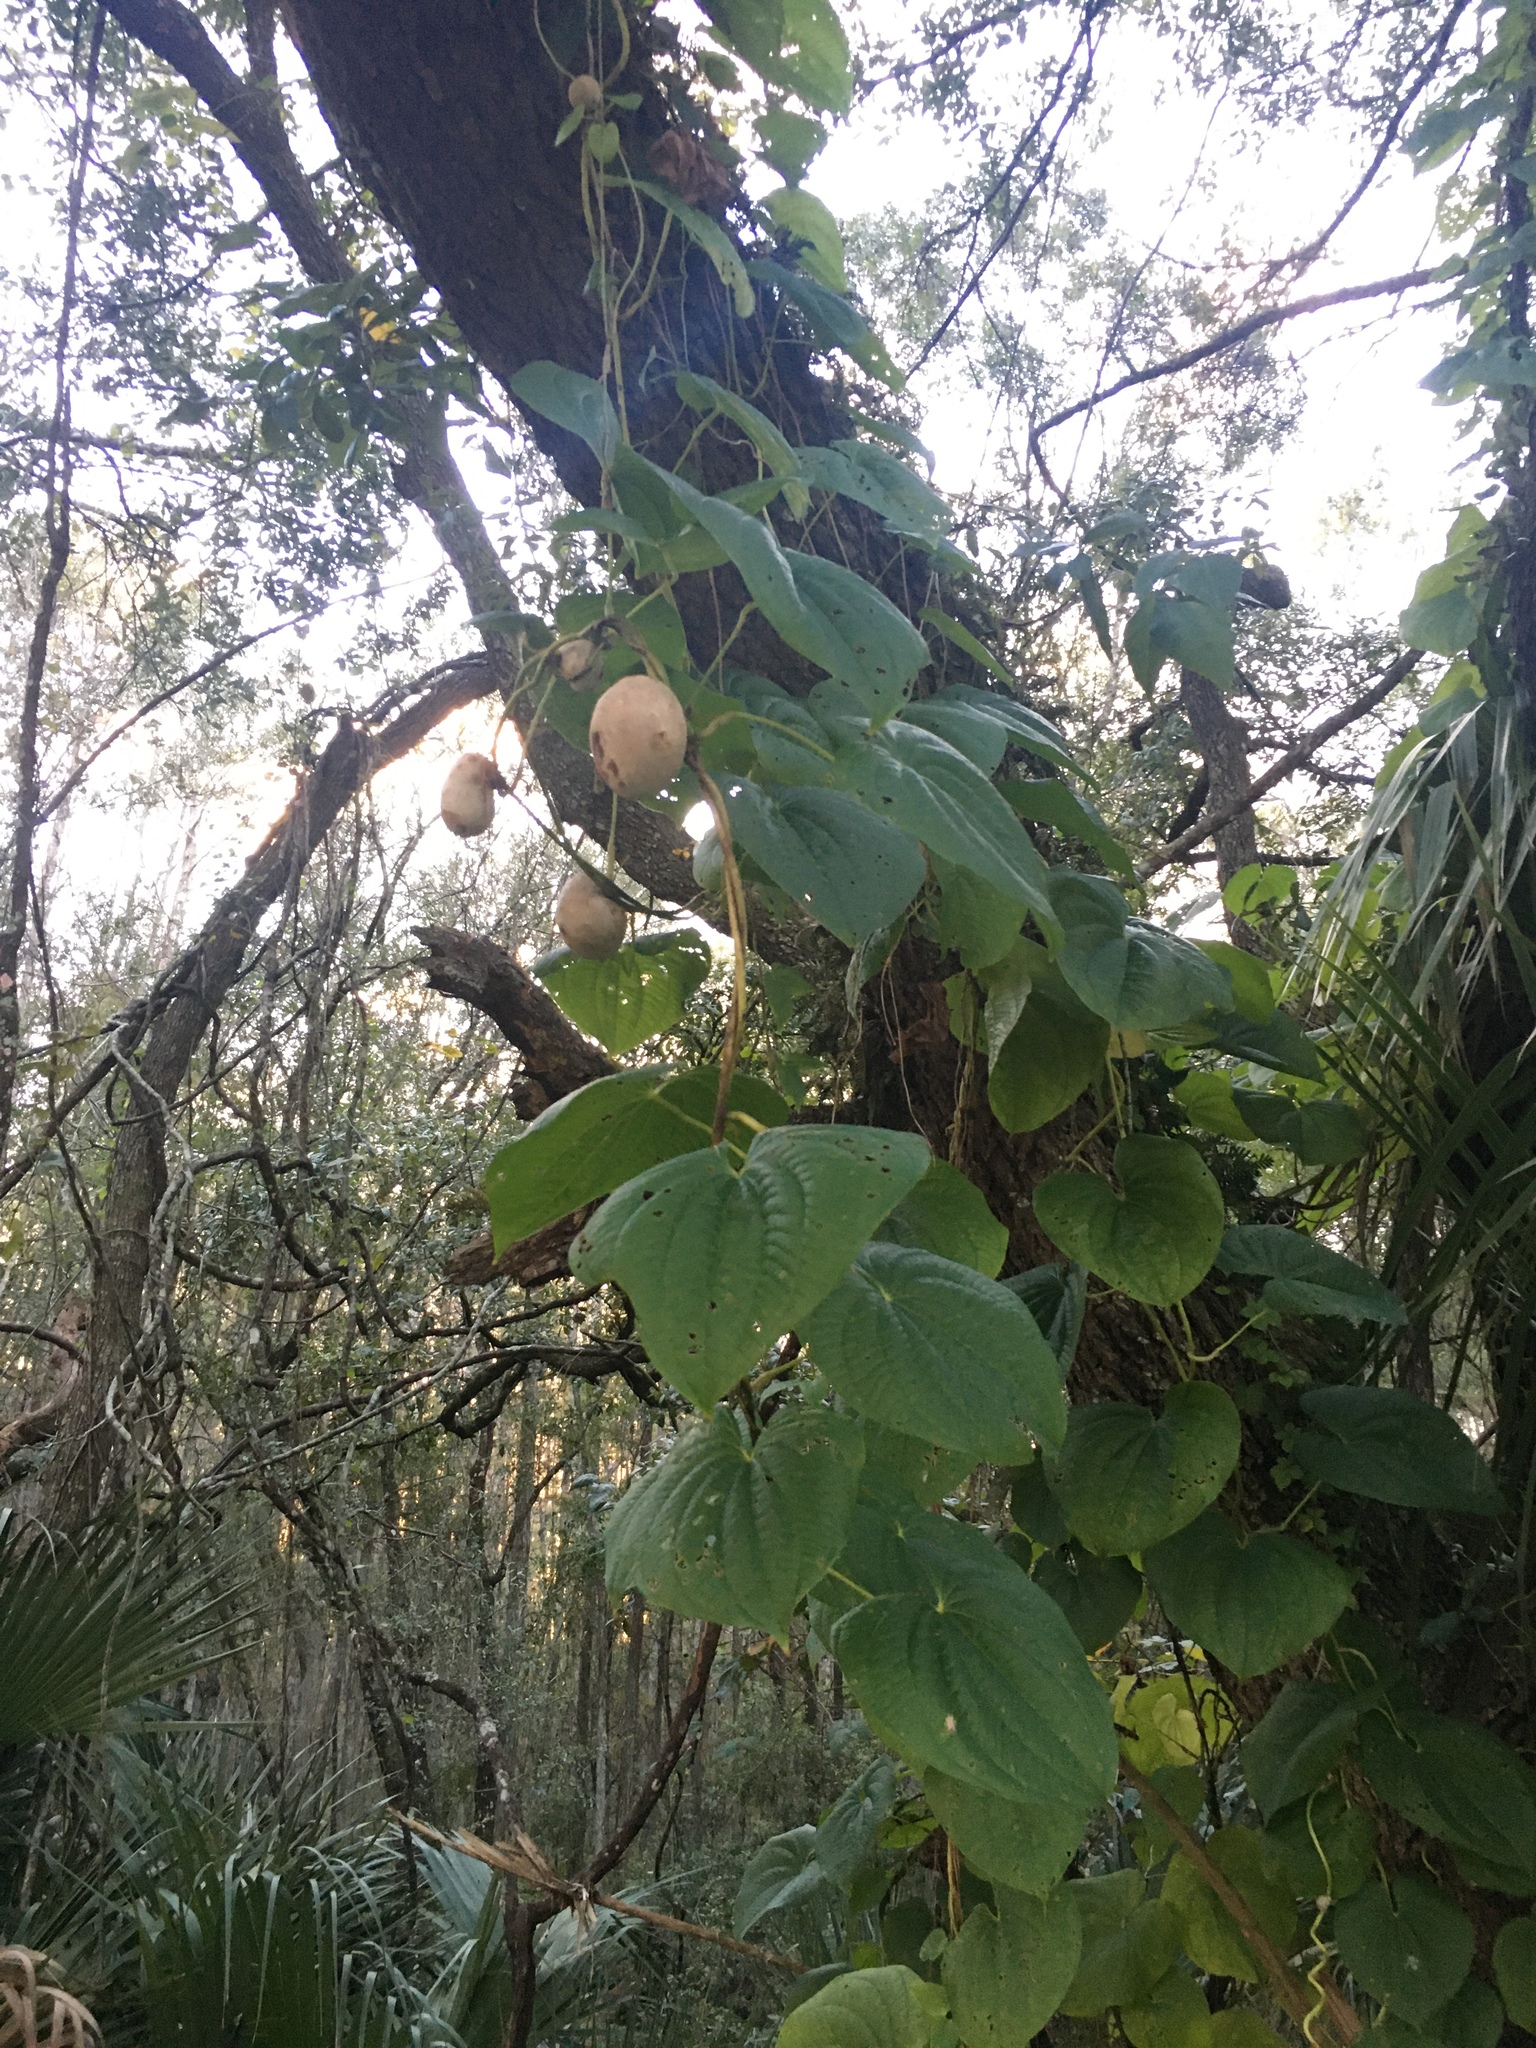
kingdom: Plantae
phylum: Tracheophyta
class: Liliopsida
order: Dioscoreales
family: Dioscoreaceae
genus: Dioscorea
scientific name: Dioscorea bulbifera
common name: Air yam
